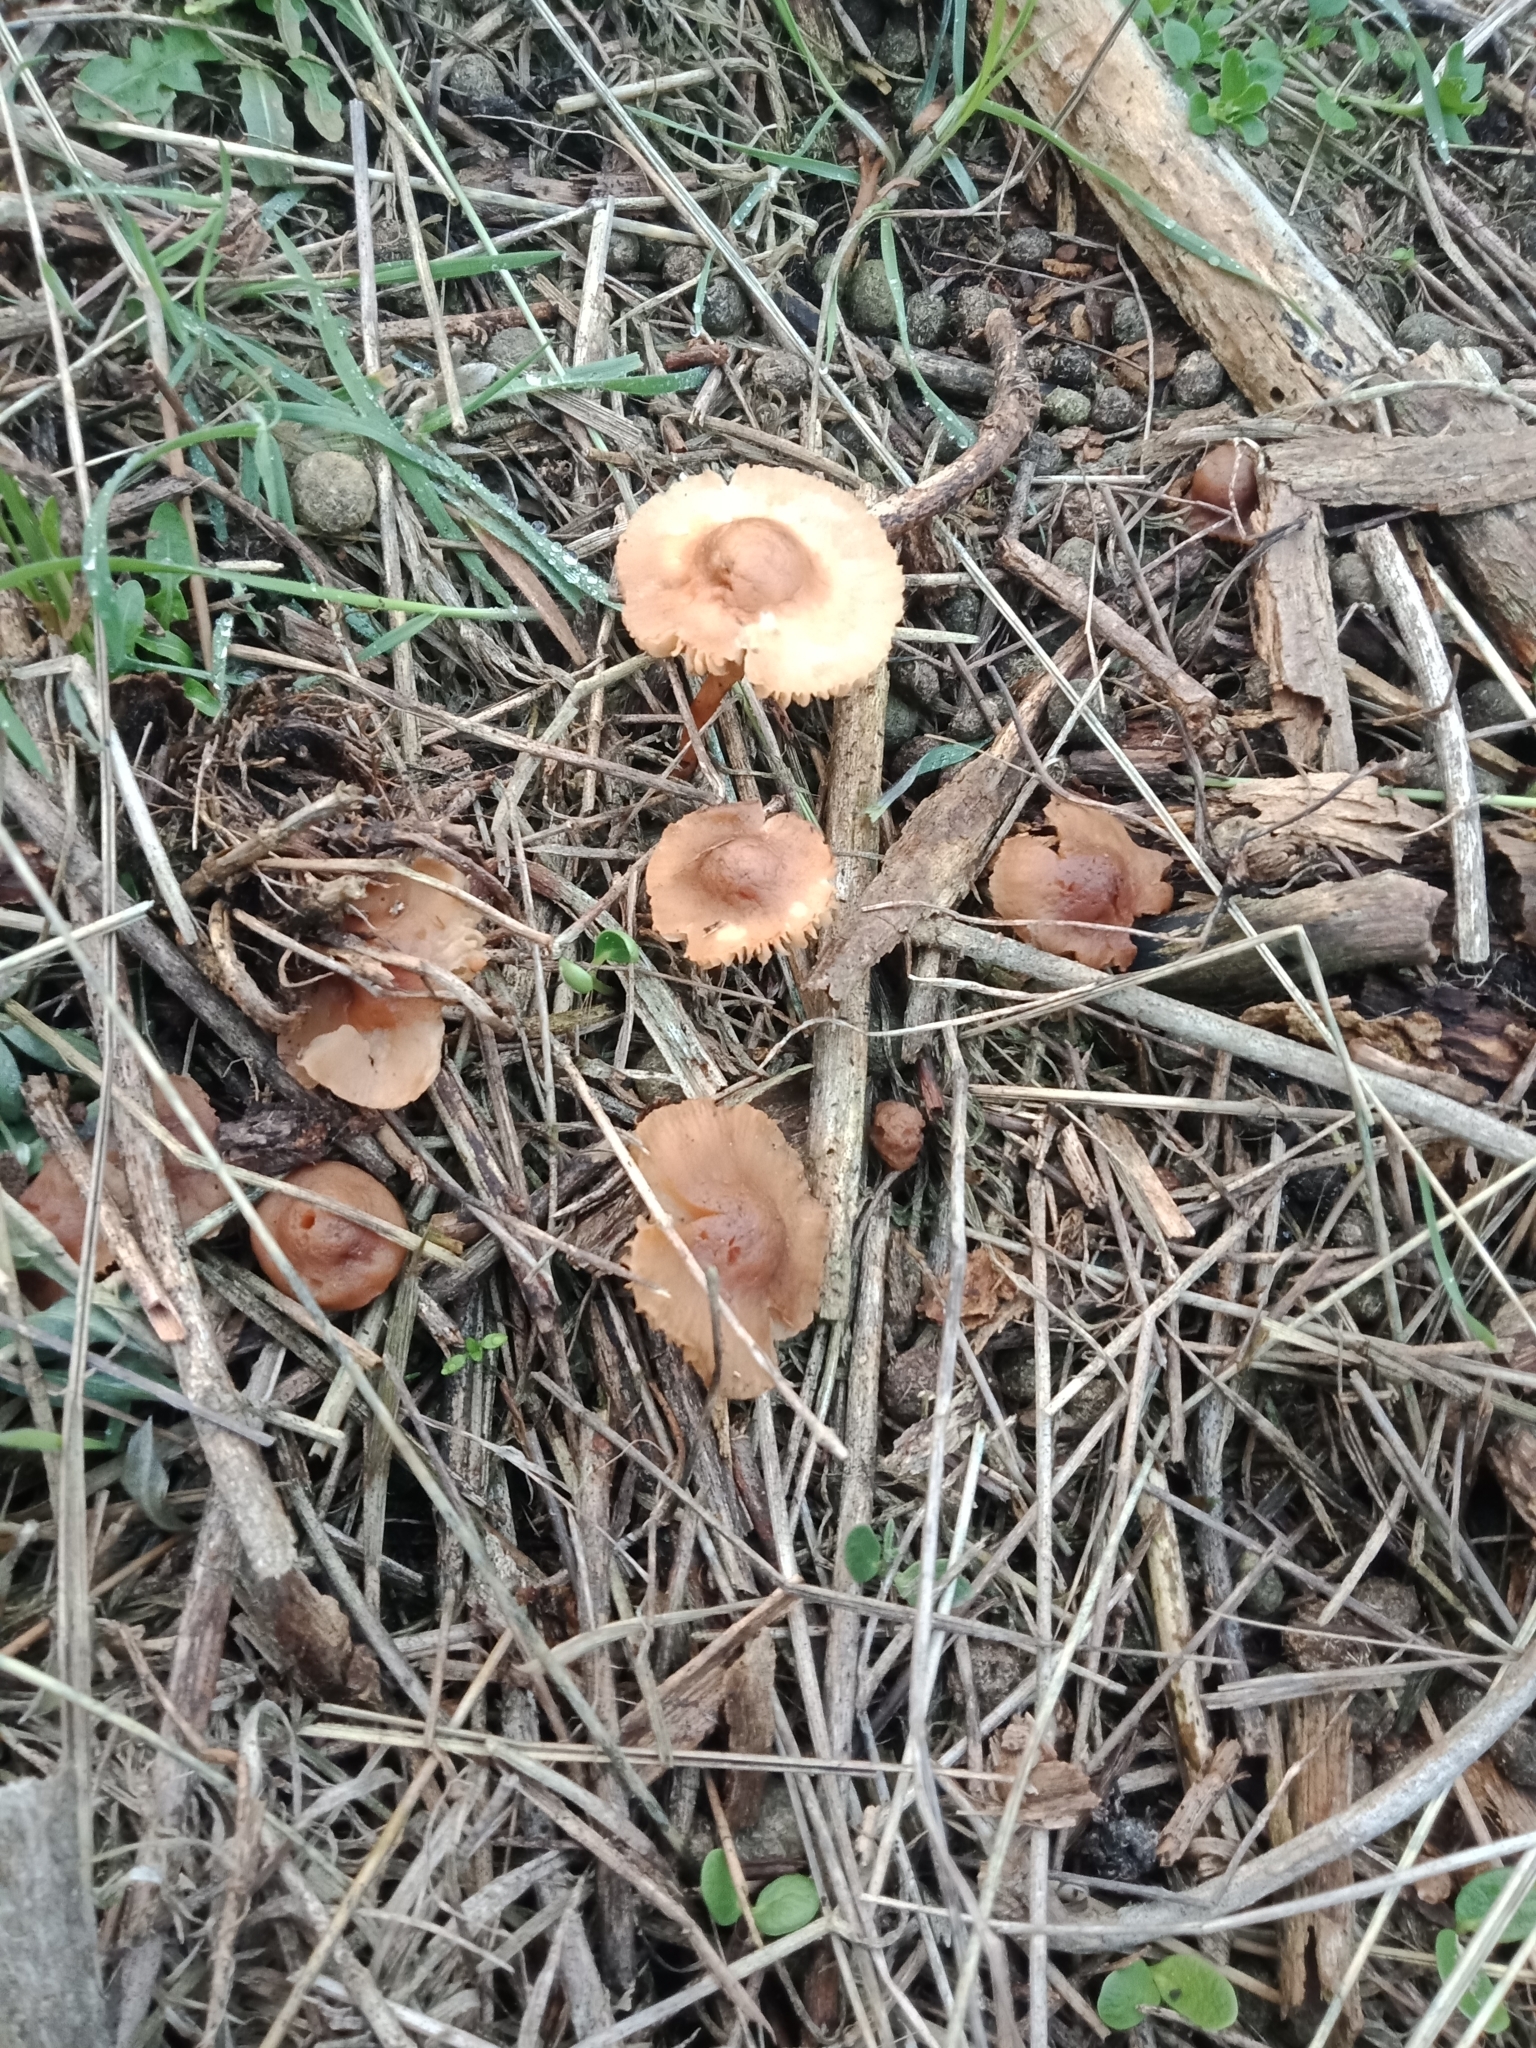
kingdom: Fungi
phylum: Basidiomycota
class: Agaricomycetes
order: Agaricales
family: Marasmiaceae
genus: Marasmius
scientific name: Marasmius oreades
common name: Fairy ring champignon
